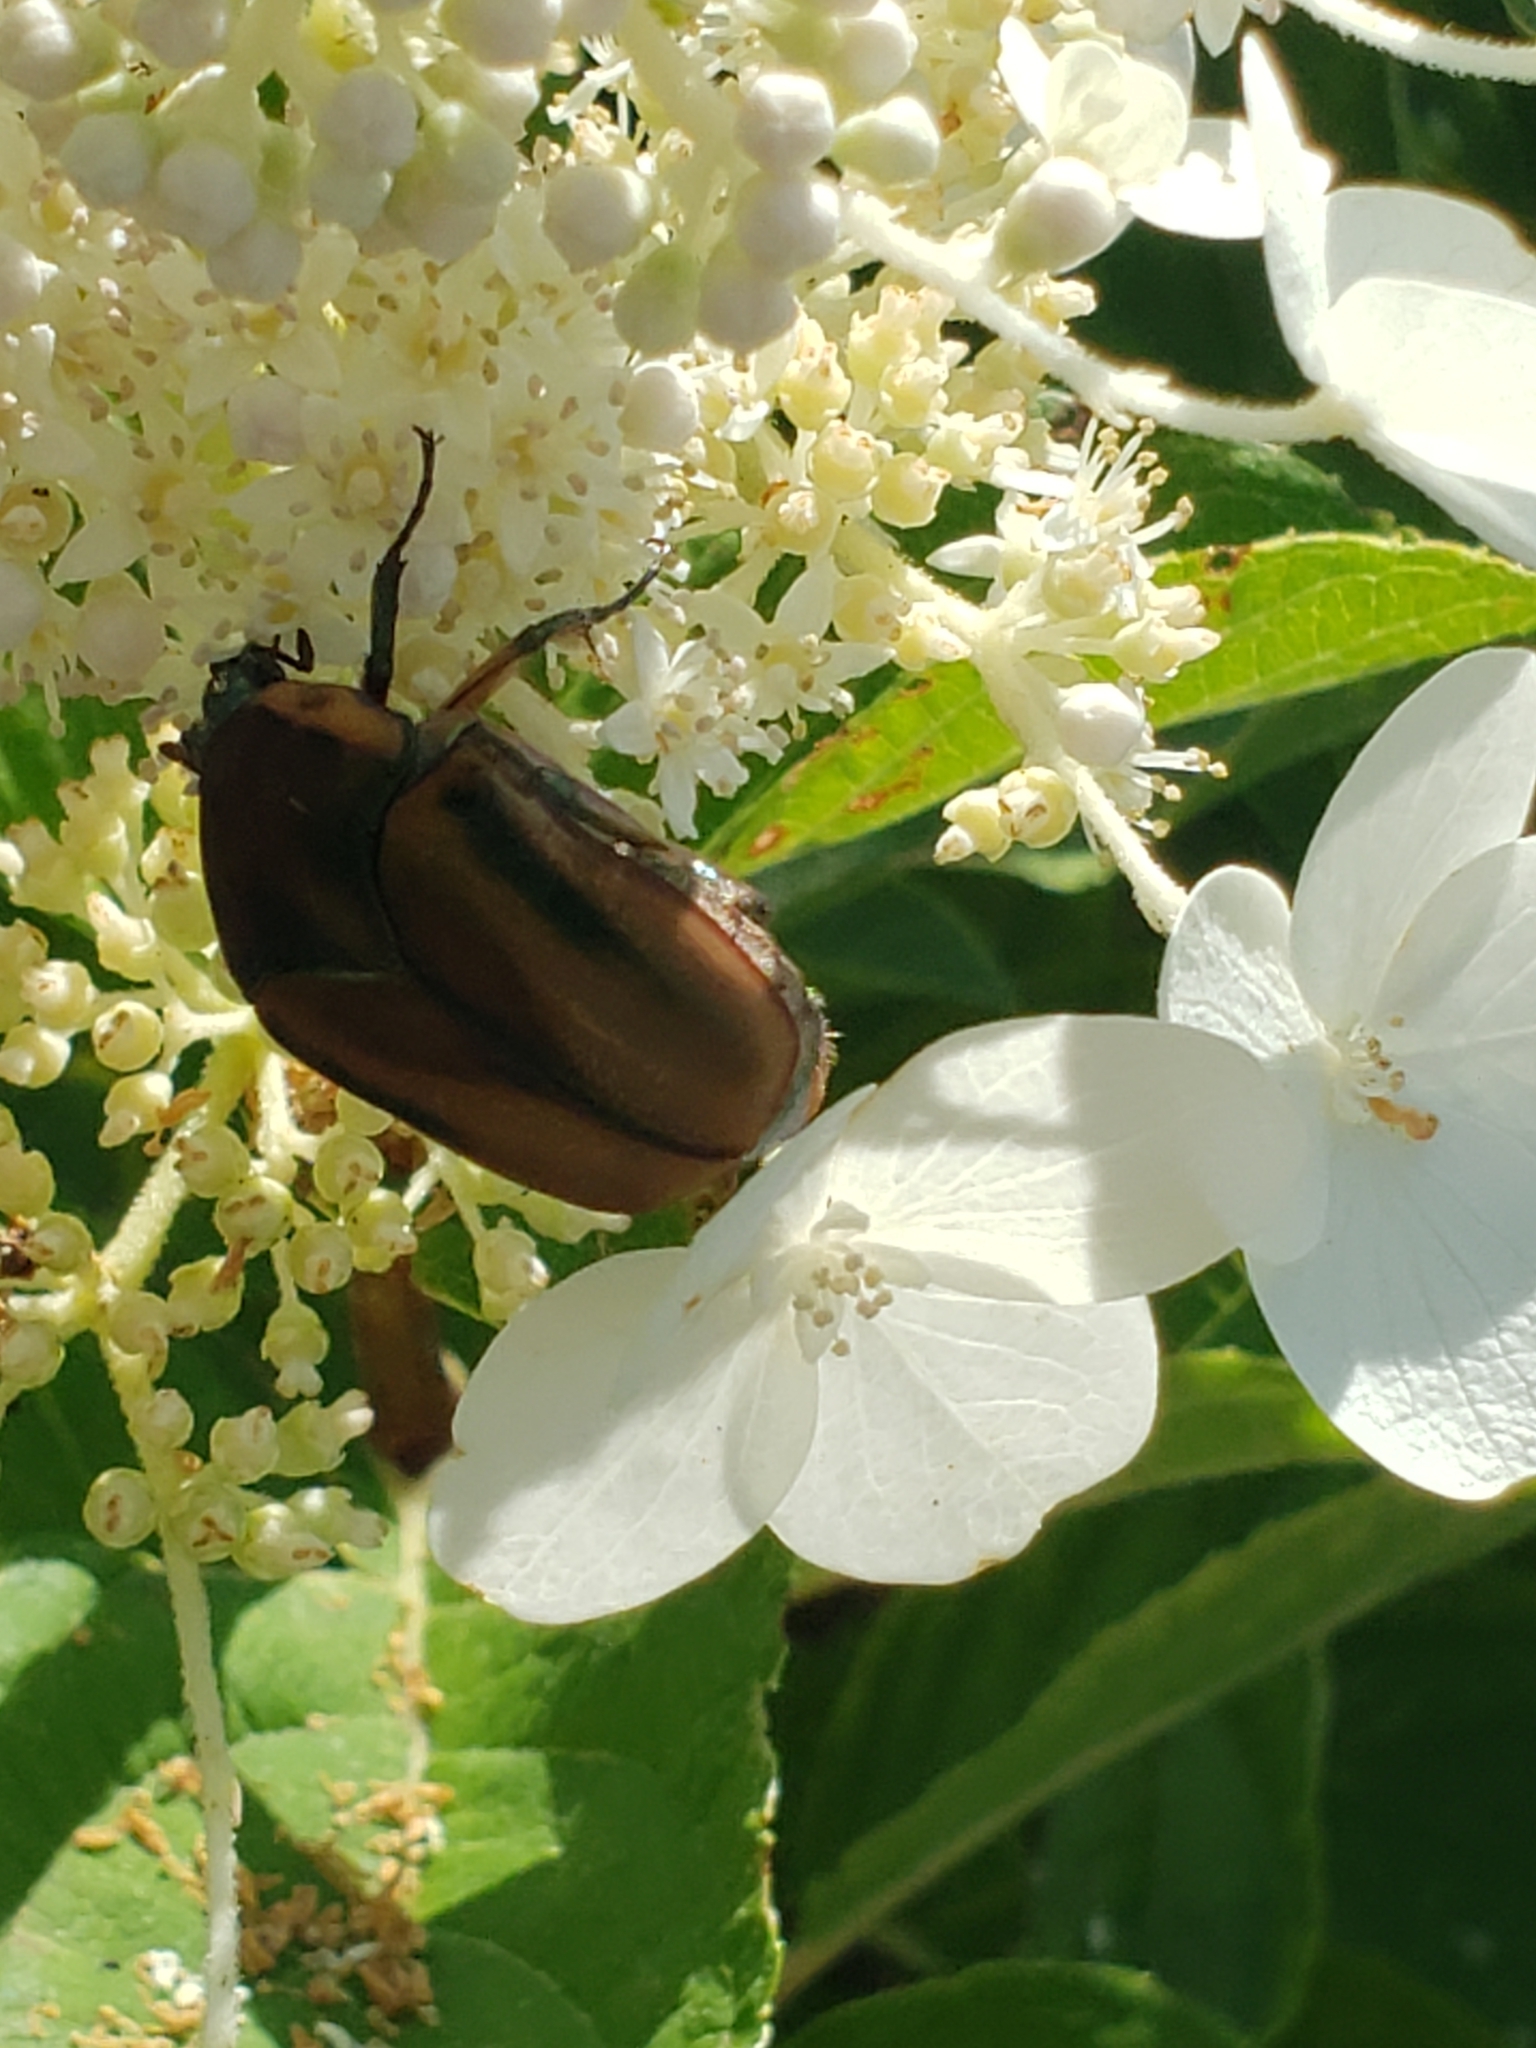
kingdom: Animalia
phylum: Arthropoda
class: Insecta
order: Coleoptera
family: Scarabaeidae
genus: Cotinis
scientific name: Cotinis nitida
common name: Common green june beetle
